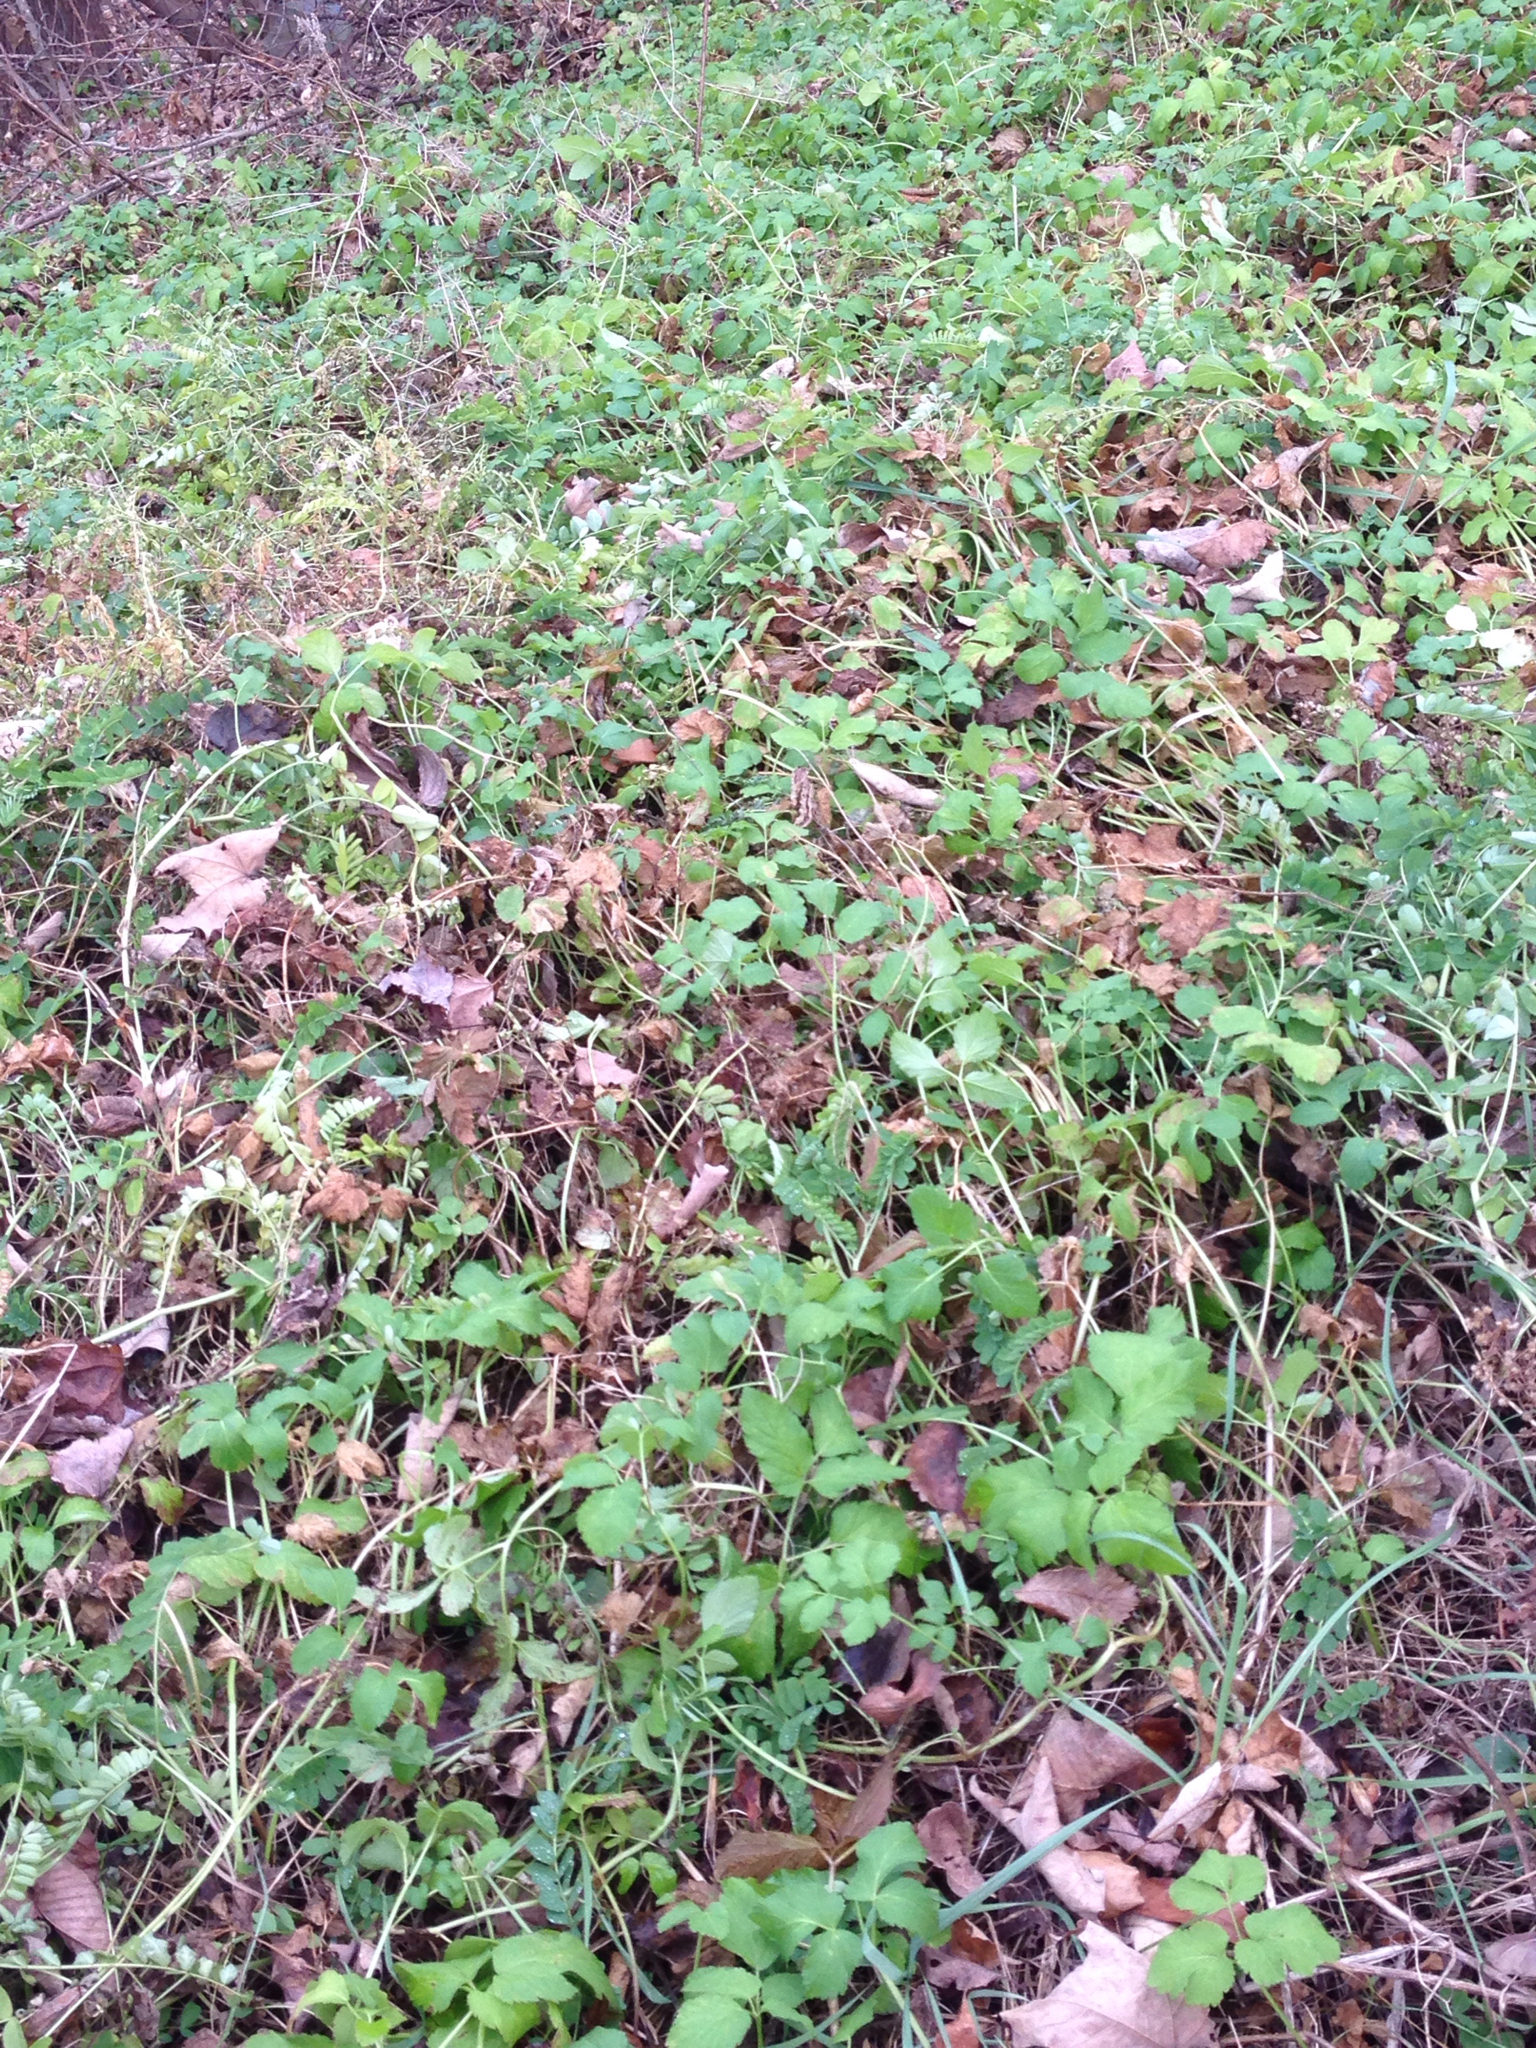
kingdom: Plantae
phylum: Tracheophyta
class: Magnoliopsida
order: Apiales
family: Apiaceae
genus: Aegopodium
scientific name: Aegopodium podagraria
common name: Ground-elder
